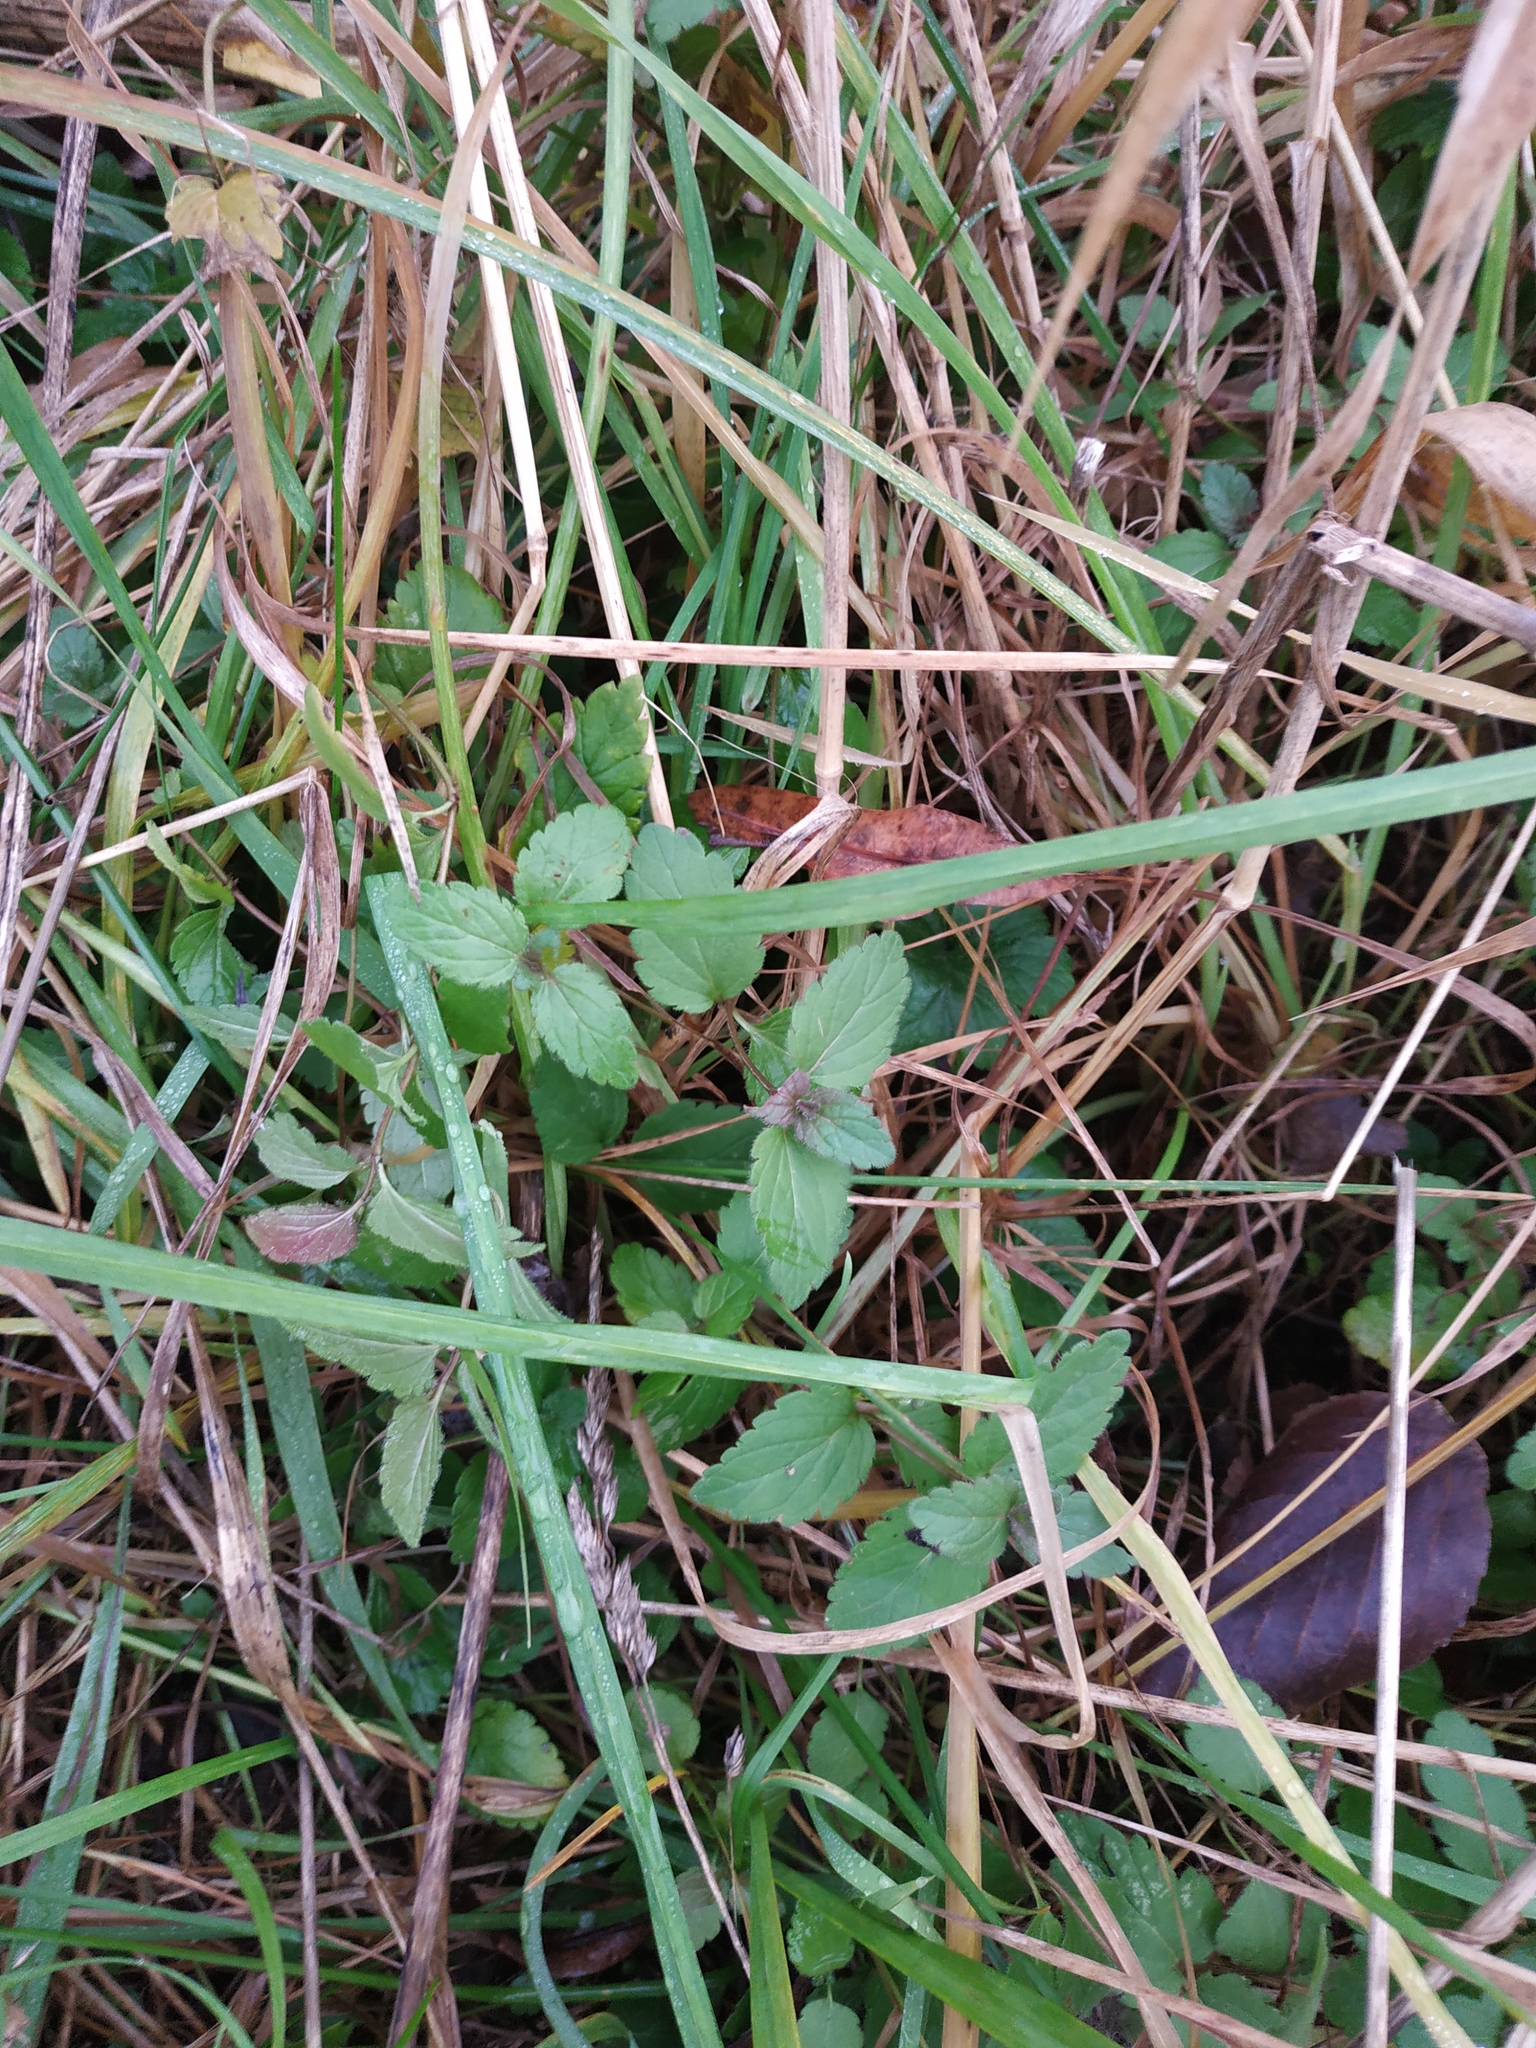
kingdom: Plantae
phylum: Tracheophyta
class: Magnoliopsida
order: Lamiales
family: Plantaginaceae
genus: Veronica
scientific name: Veronica chamaedrys
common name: Germander speedwell
